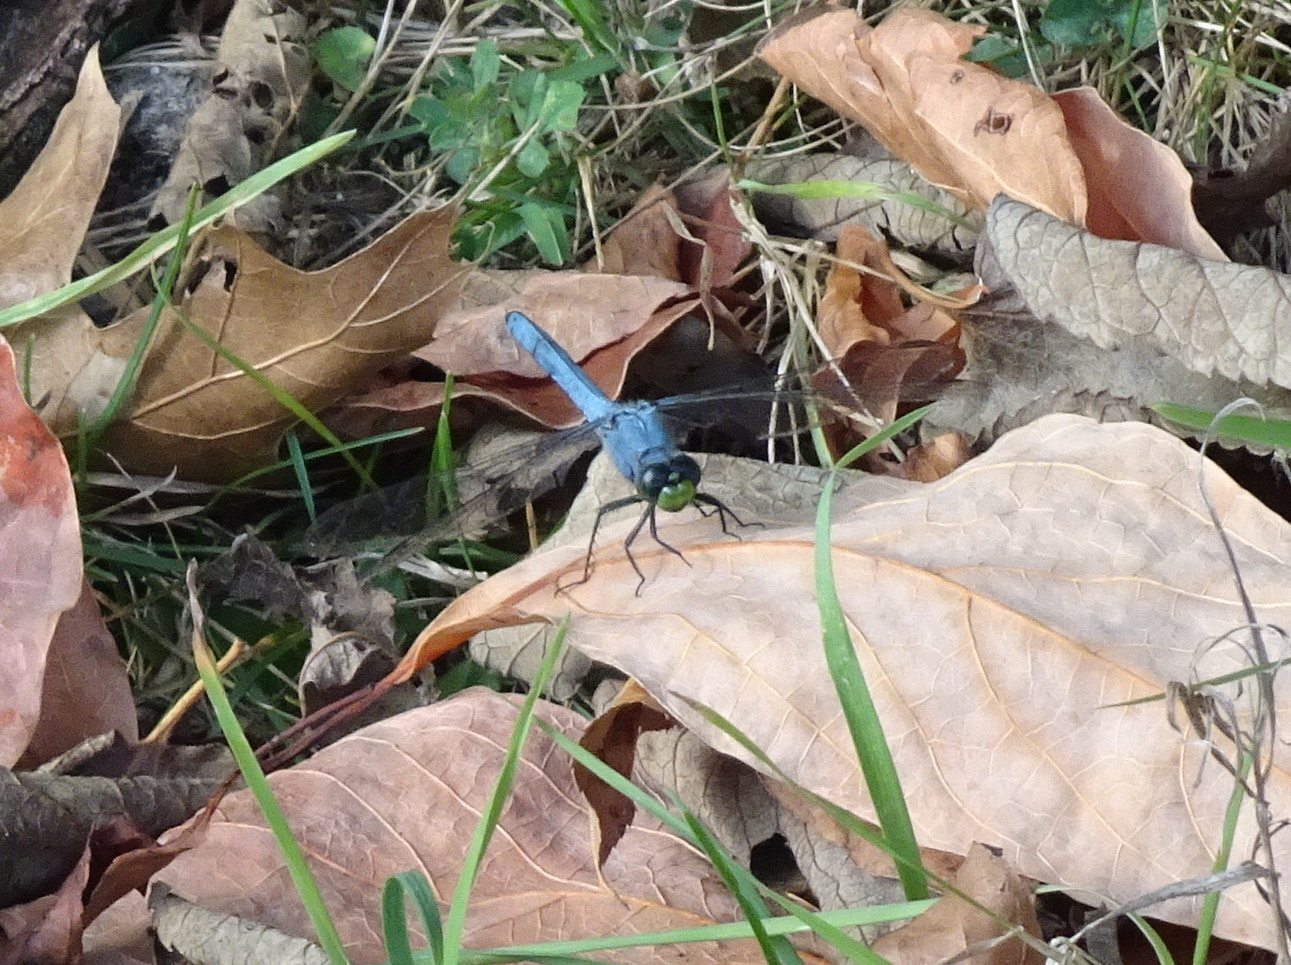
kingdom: Animalia
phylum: Arthropoda
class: Insecta
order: Odonata
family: Libellulidae
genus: Erythemis
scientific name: Erythemis simplicicollis
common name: Eastern pondhawk
